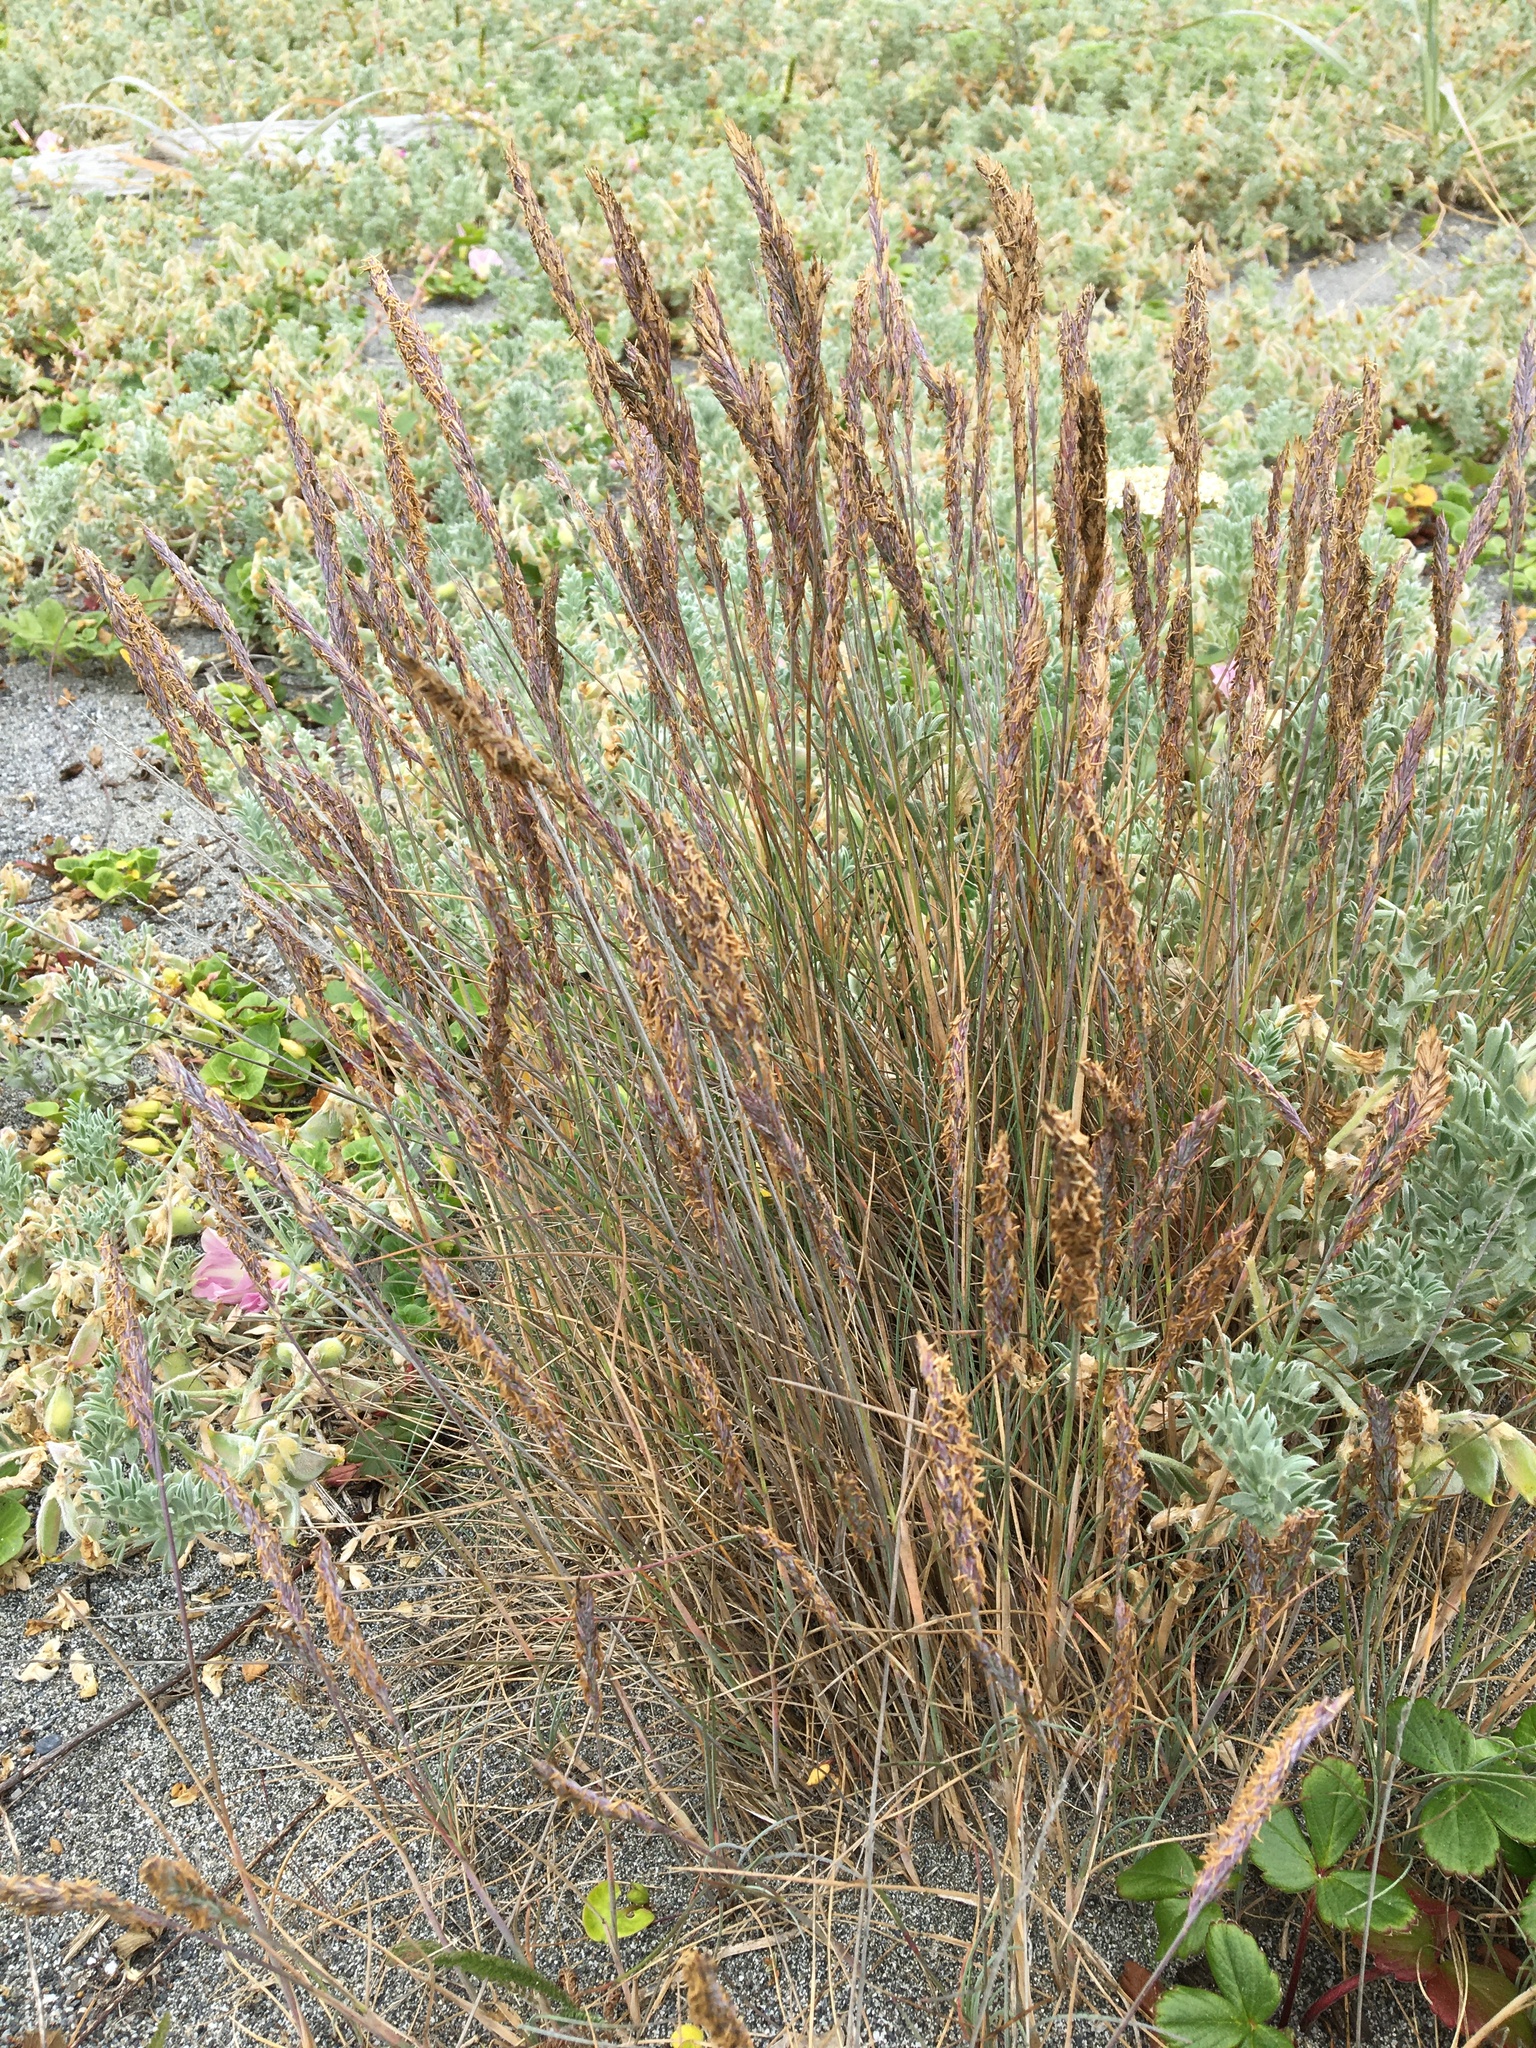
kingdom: Plantae
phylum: Tracheophyta
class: Liliopsida
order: Poales
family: Poaceae
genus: Poa
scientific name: Poa macrantha
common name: Dune bluegrass
